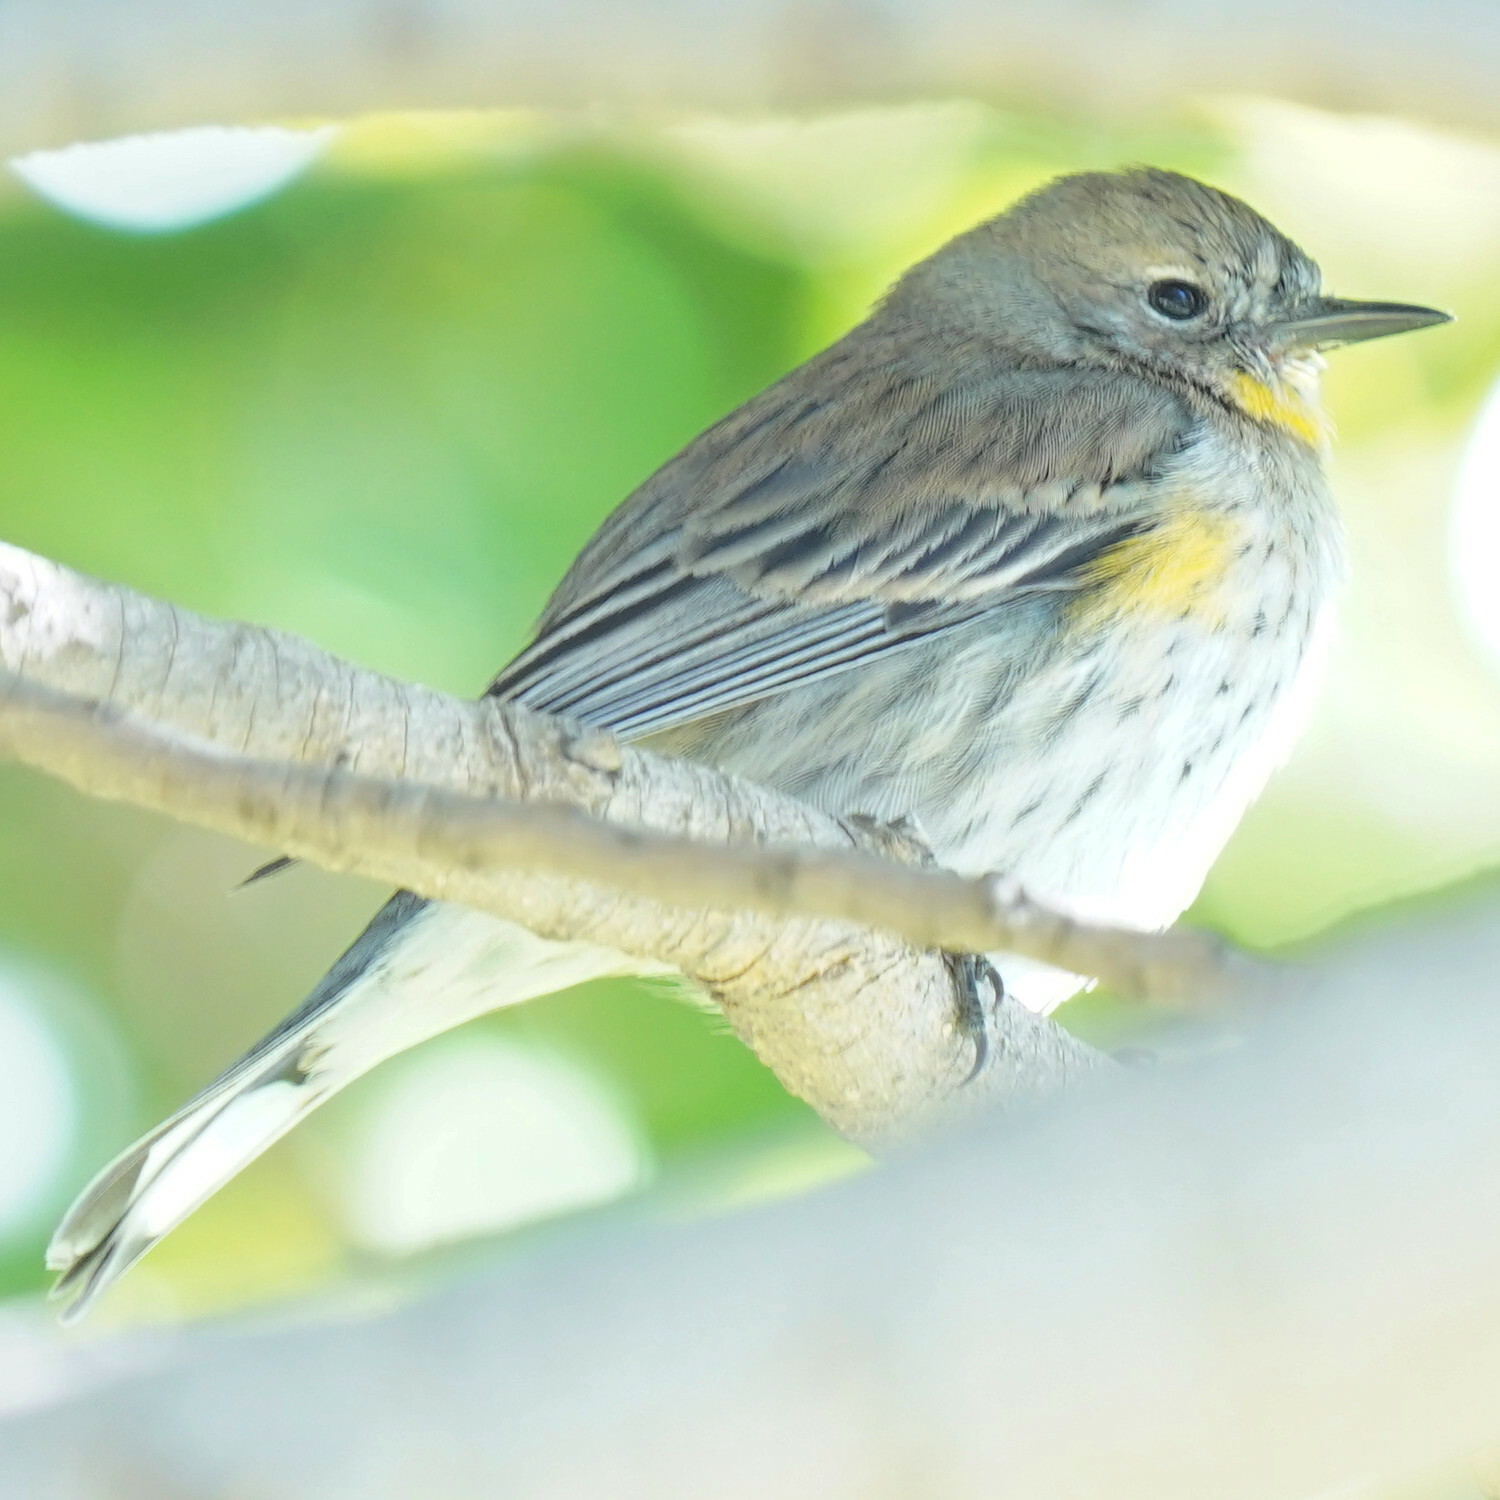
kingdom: Animalia
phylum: Chordata
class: Aves
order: Passeriformes
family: Parulidae
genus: Setophaga
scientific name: Setophaga coronata
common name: Myrtle warbler
